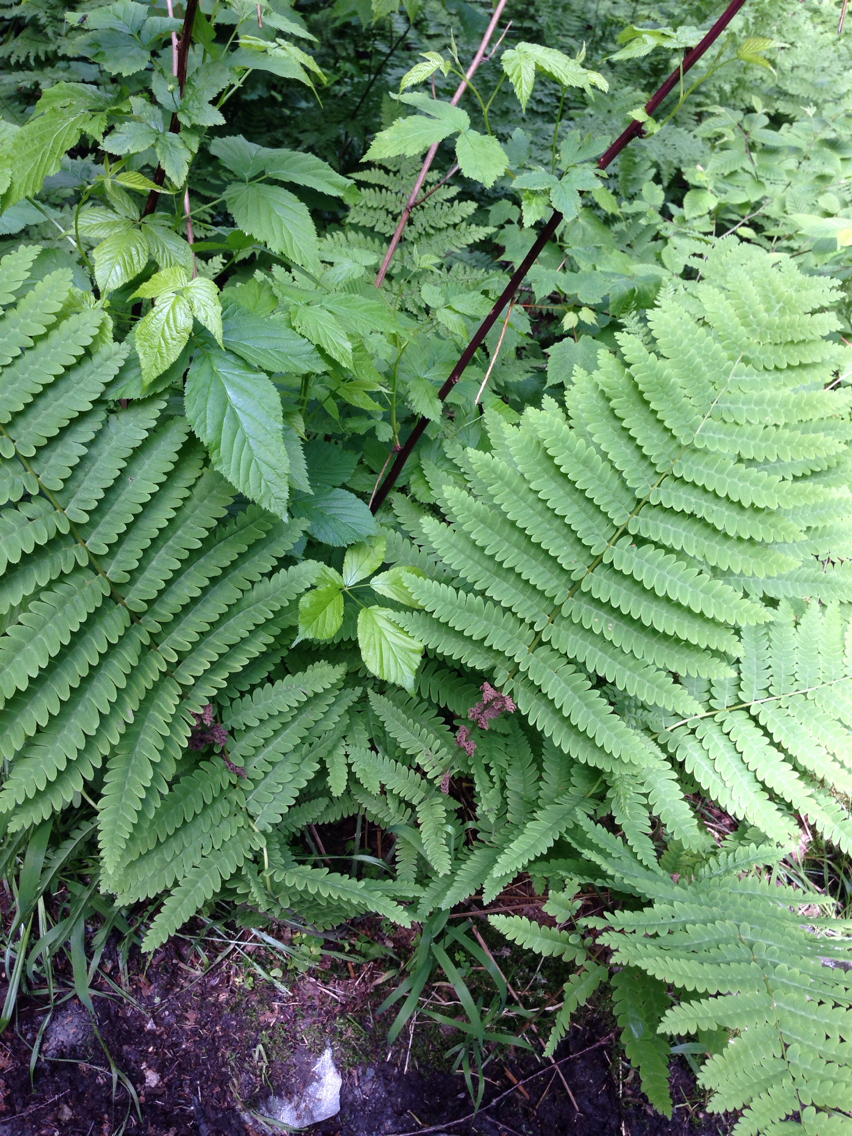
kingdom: Plantae
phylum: Tracheophyta
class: Polypodiopsida
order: Osmundales
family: Osmundaceae
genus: Claytosmunda
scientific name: Claytosmunda claytoniana
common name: Clayton's fern
